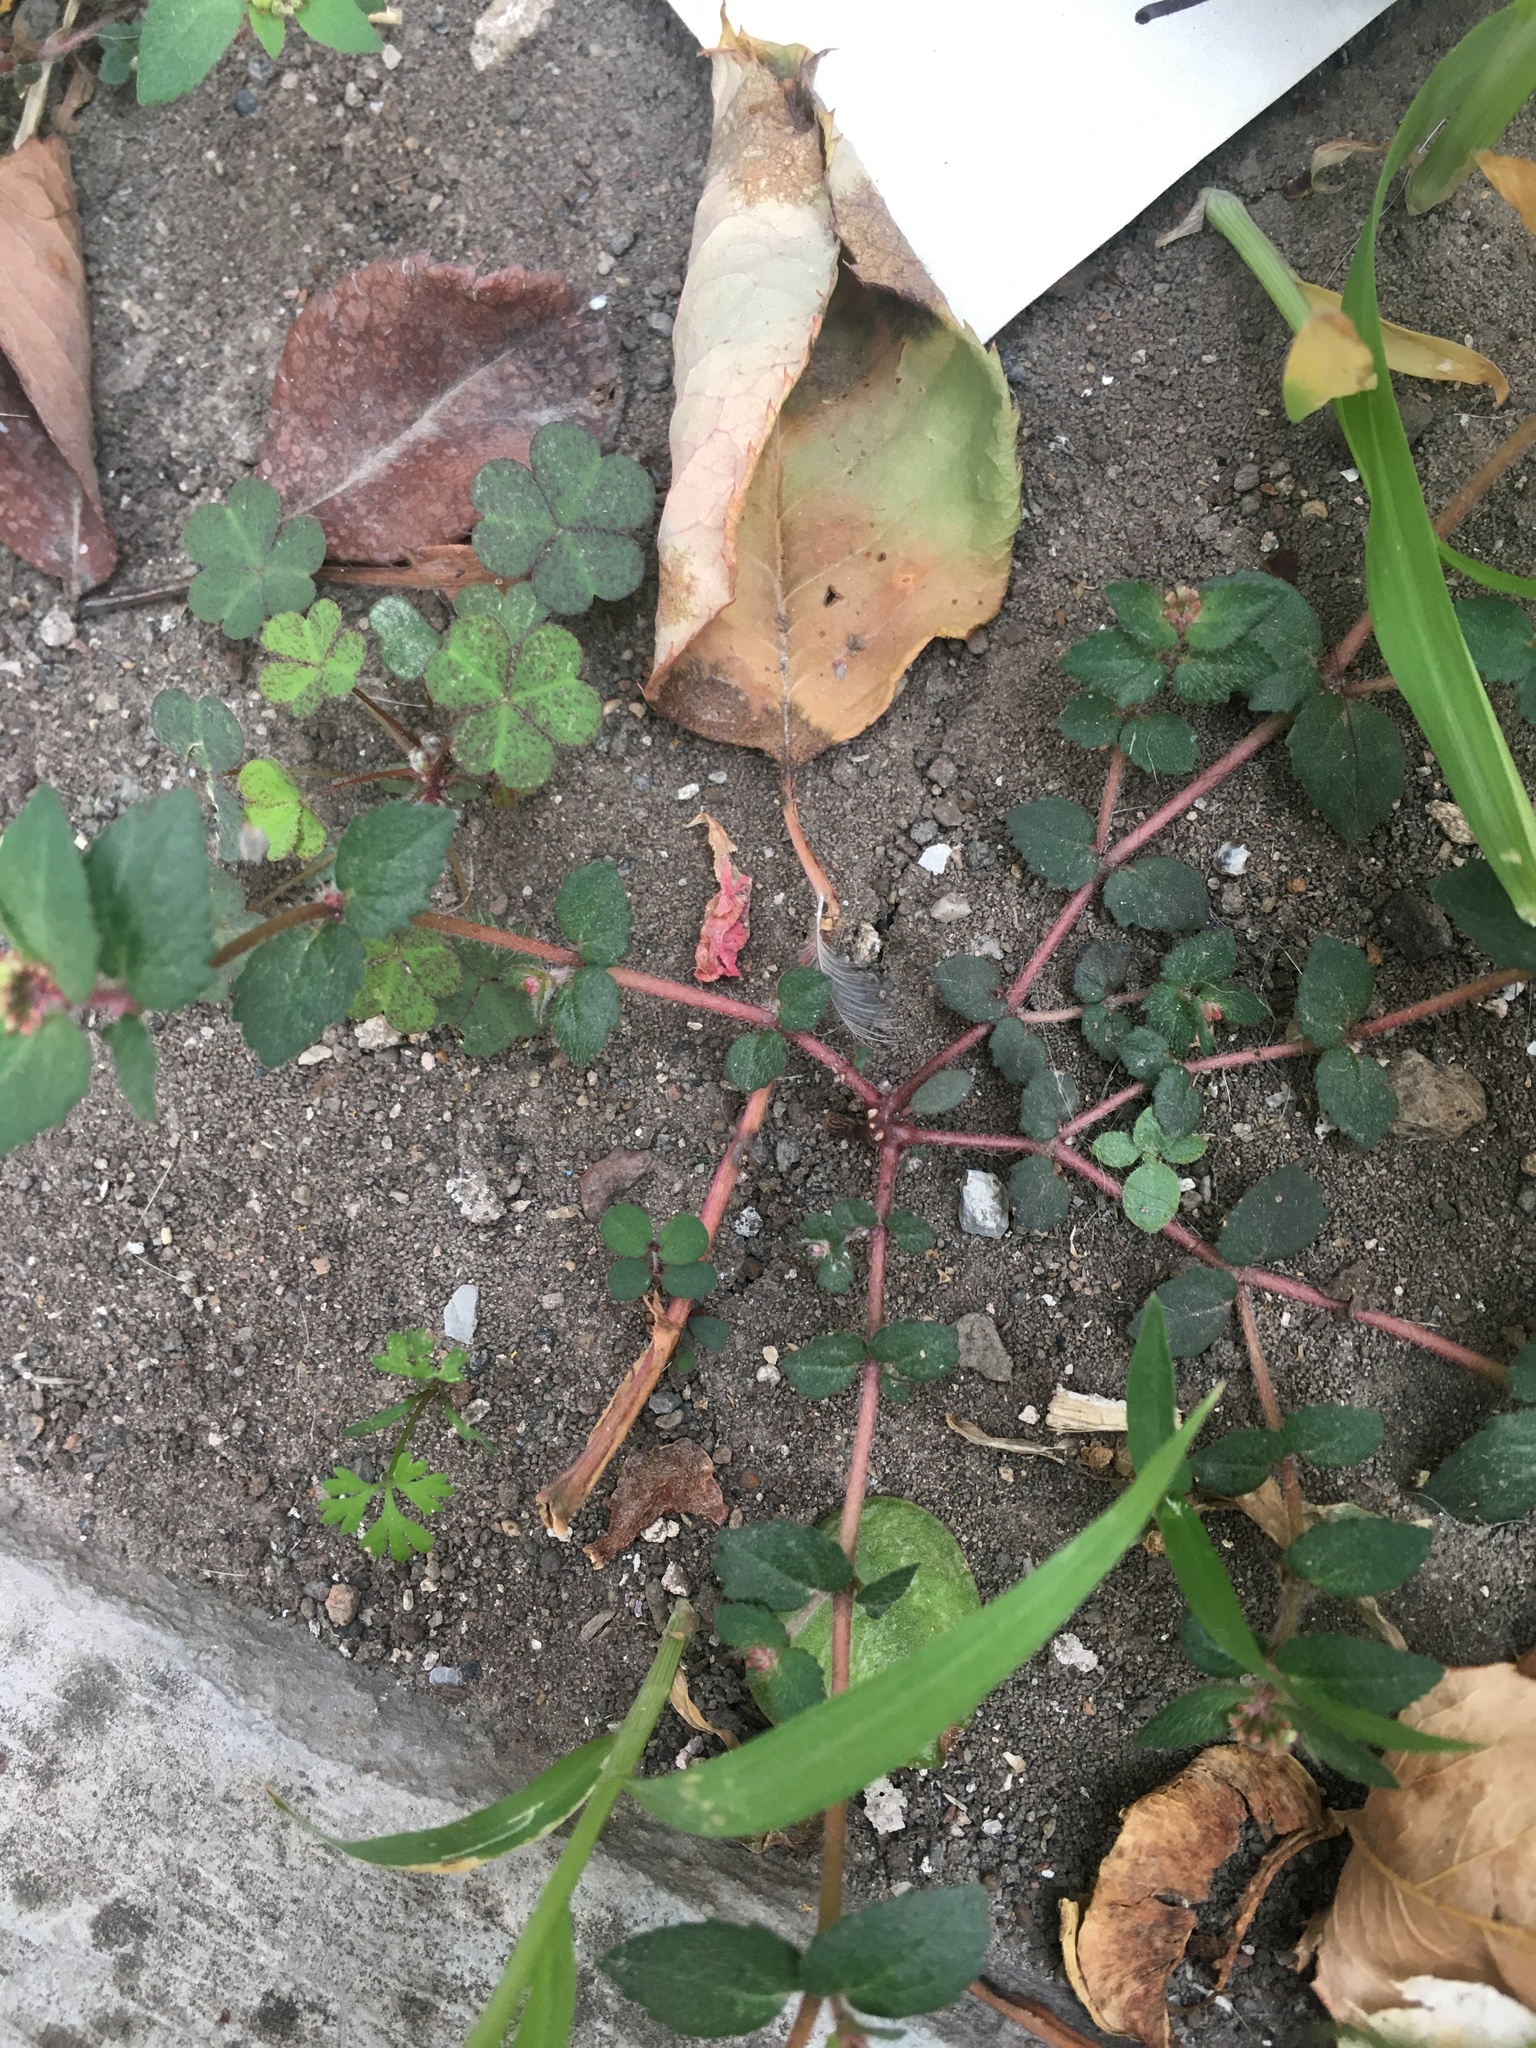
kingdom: Plantae
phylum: Tracheophyta
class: Magnoliopsida
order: Malpighiales
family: Euphorbiaceae
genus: Euphorbia
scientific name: Euphorbia ophthalmica
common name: Florida hammock sandmat
